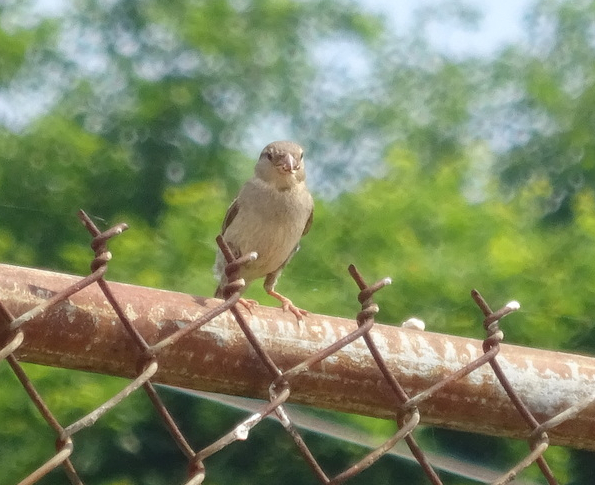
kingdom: Animalia
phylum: Chordata
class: Aves
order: Passeriformes
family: Passeridae
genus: Passer
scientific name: Passer domesticus
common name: House sparrow
